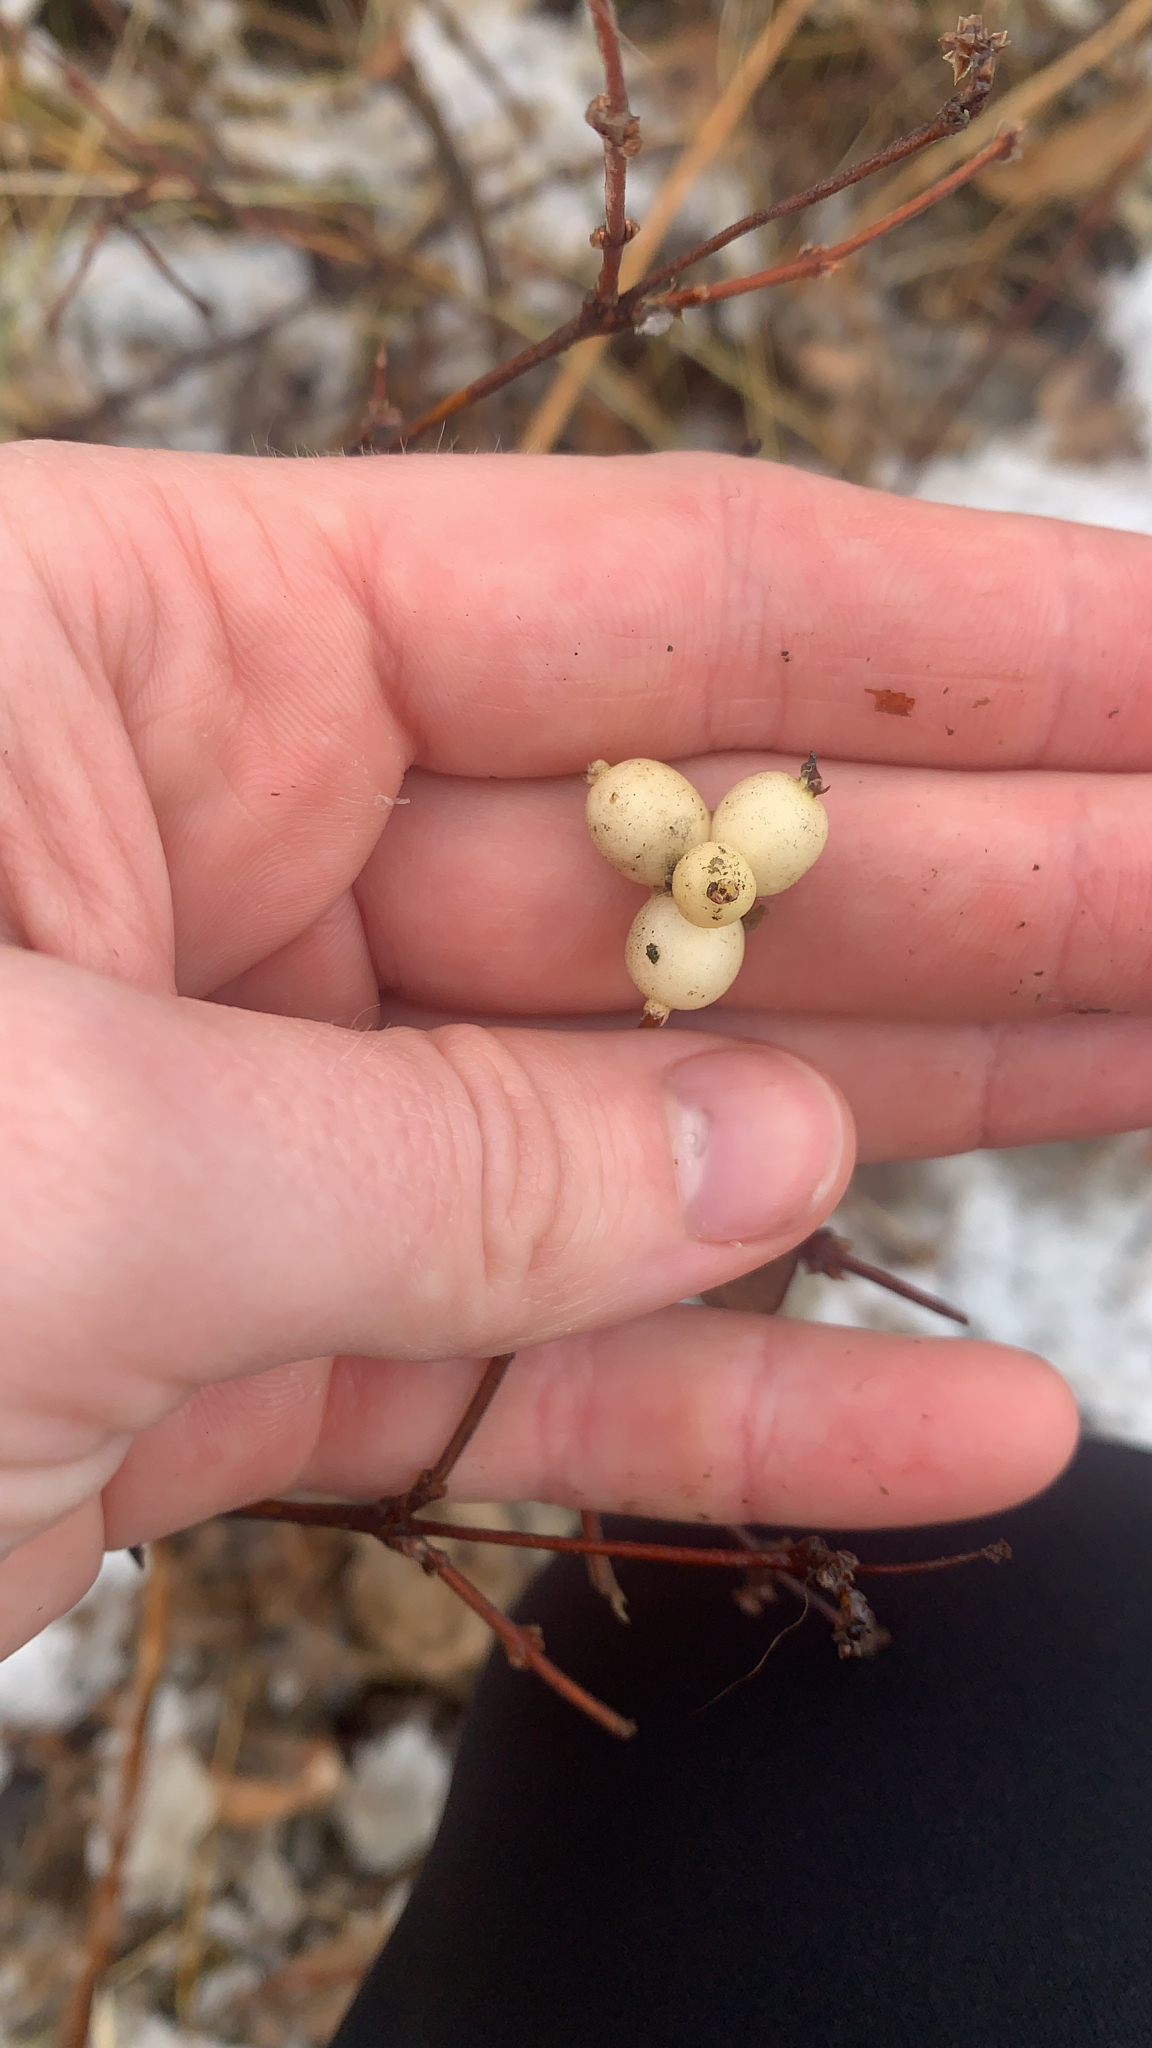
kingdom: Plantae
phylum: Tracheophyta
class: Magnoliopsida
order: Dipsacales
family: Caprifoliaceae
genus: Symphoricarpos
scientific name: Symphoricarpos albus
